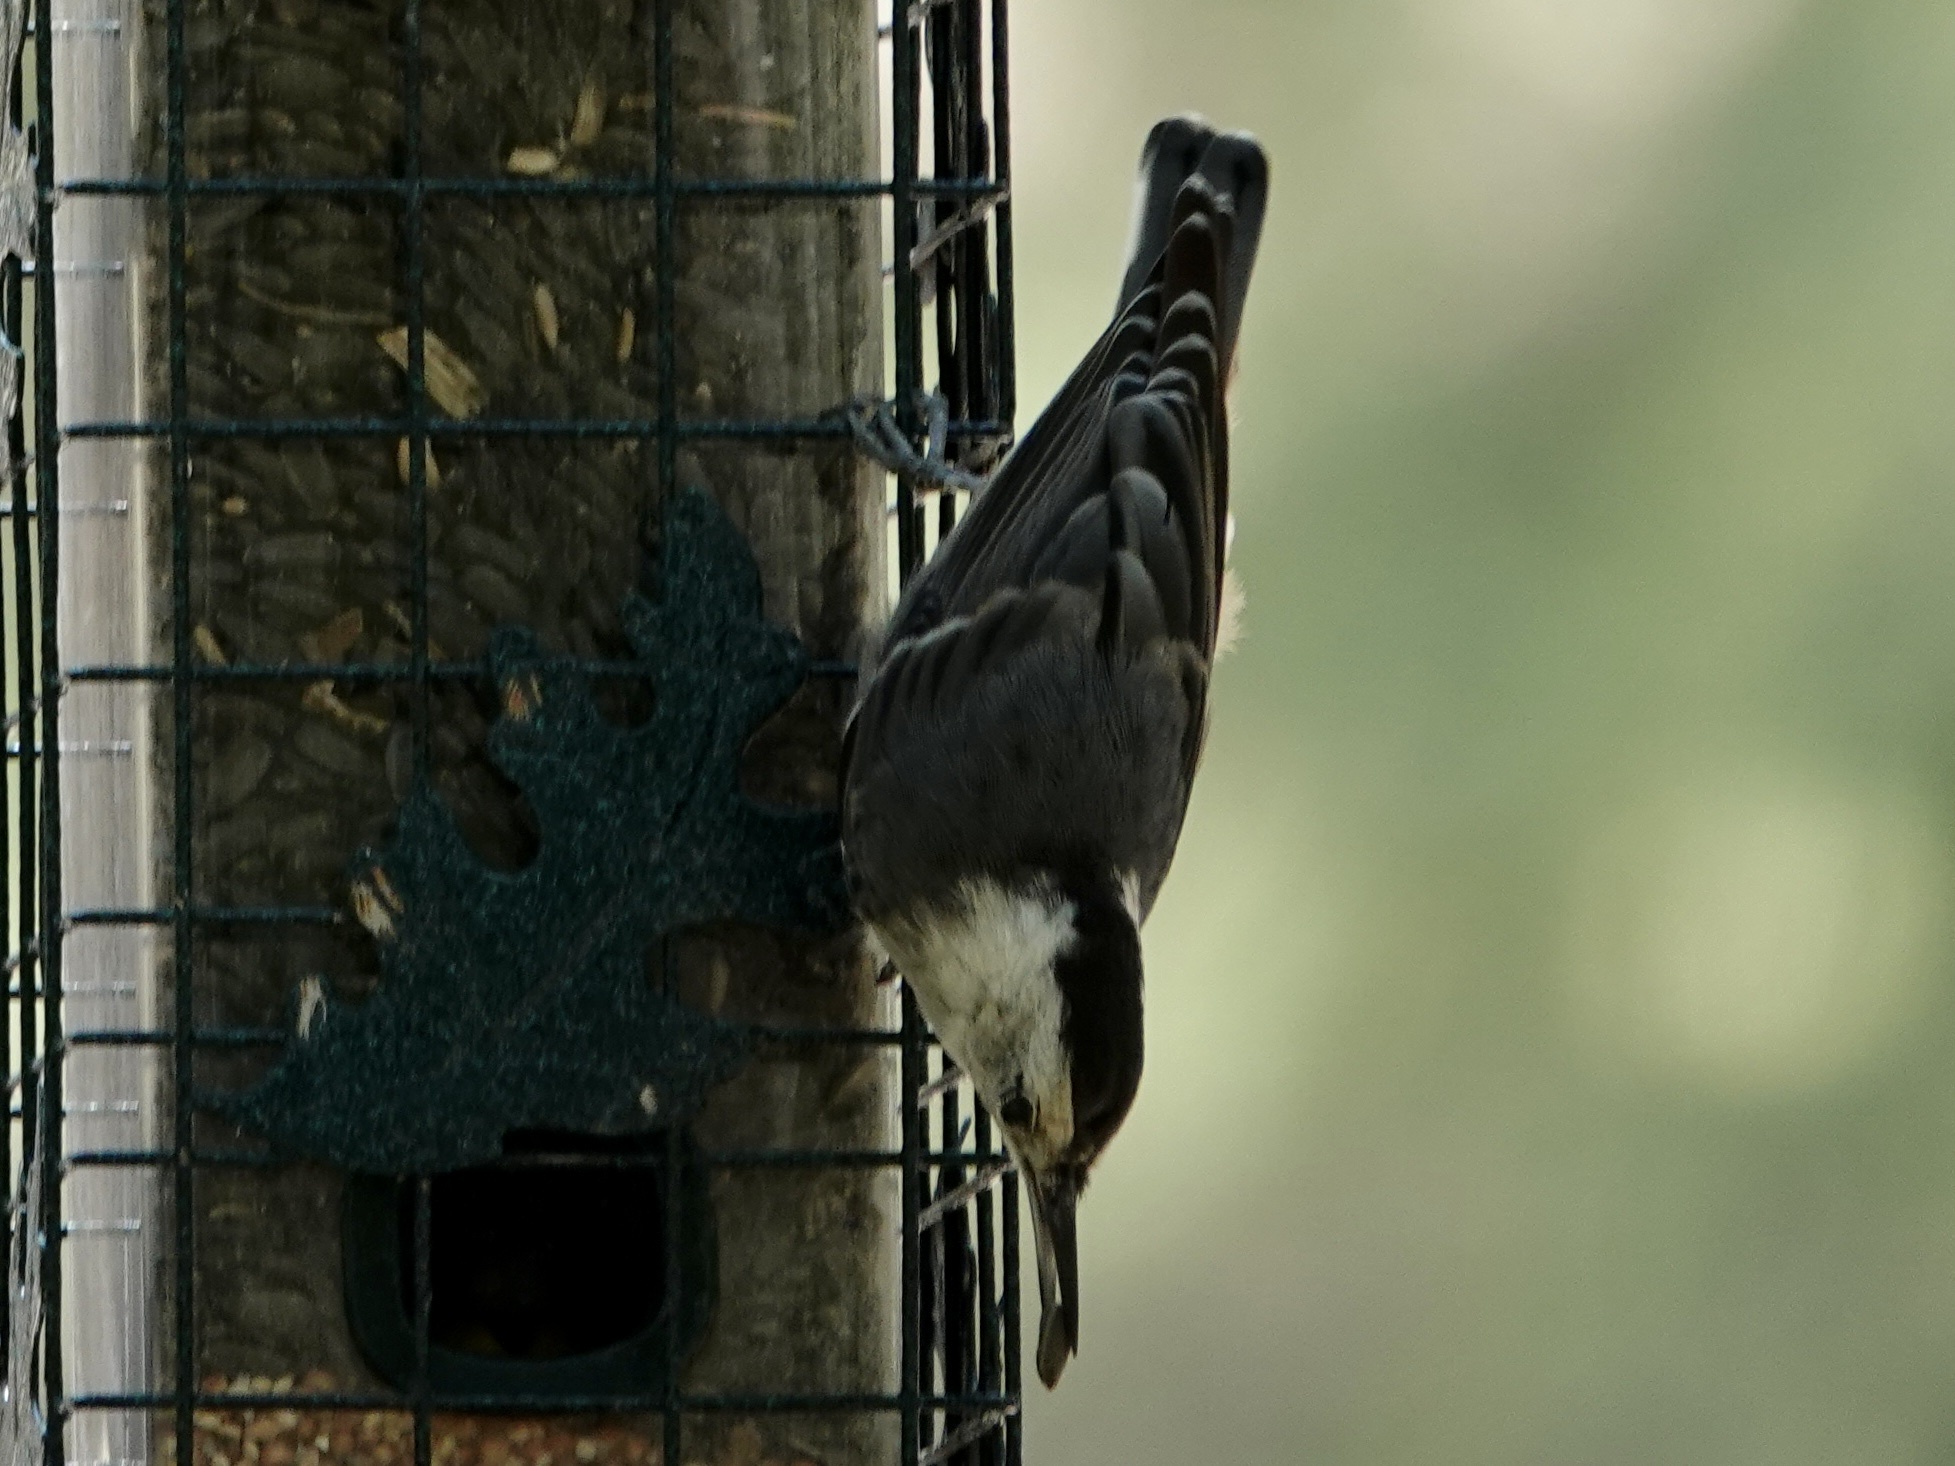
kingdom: Animalia
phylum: Chordata
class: Aves
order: Passeriformes
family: Sittidae
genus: Sitta
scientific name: Sitta carolinensis
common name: White-breasted nuthatch
